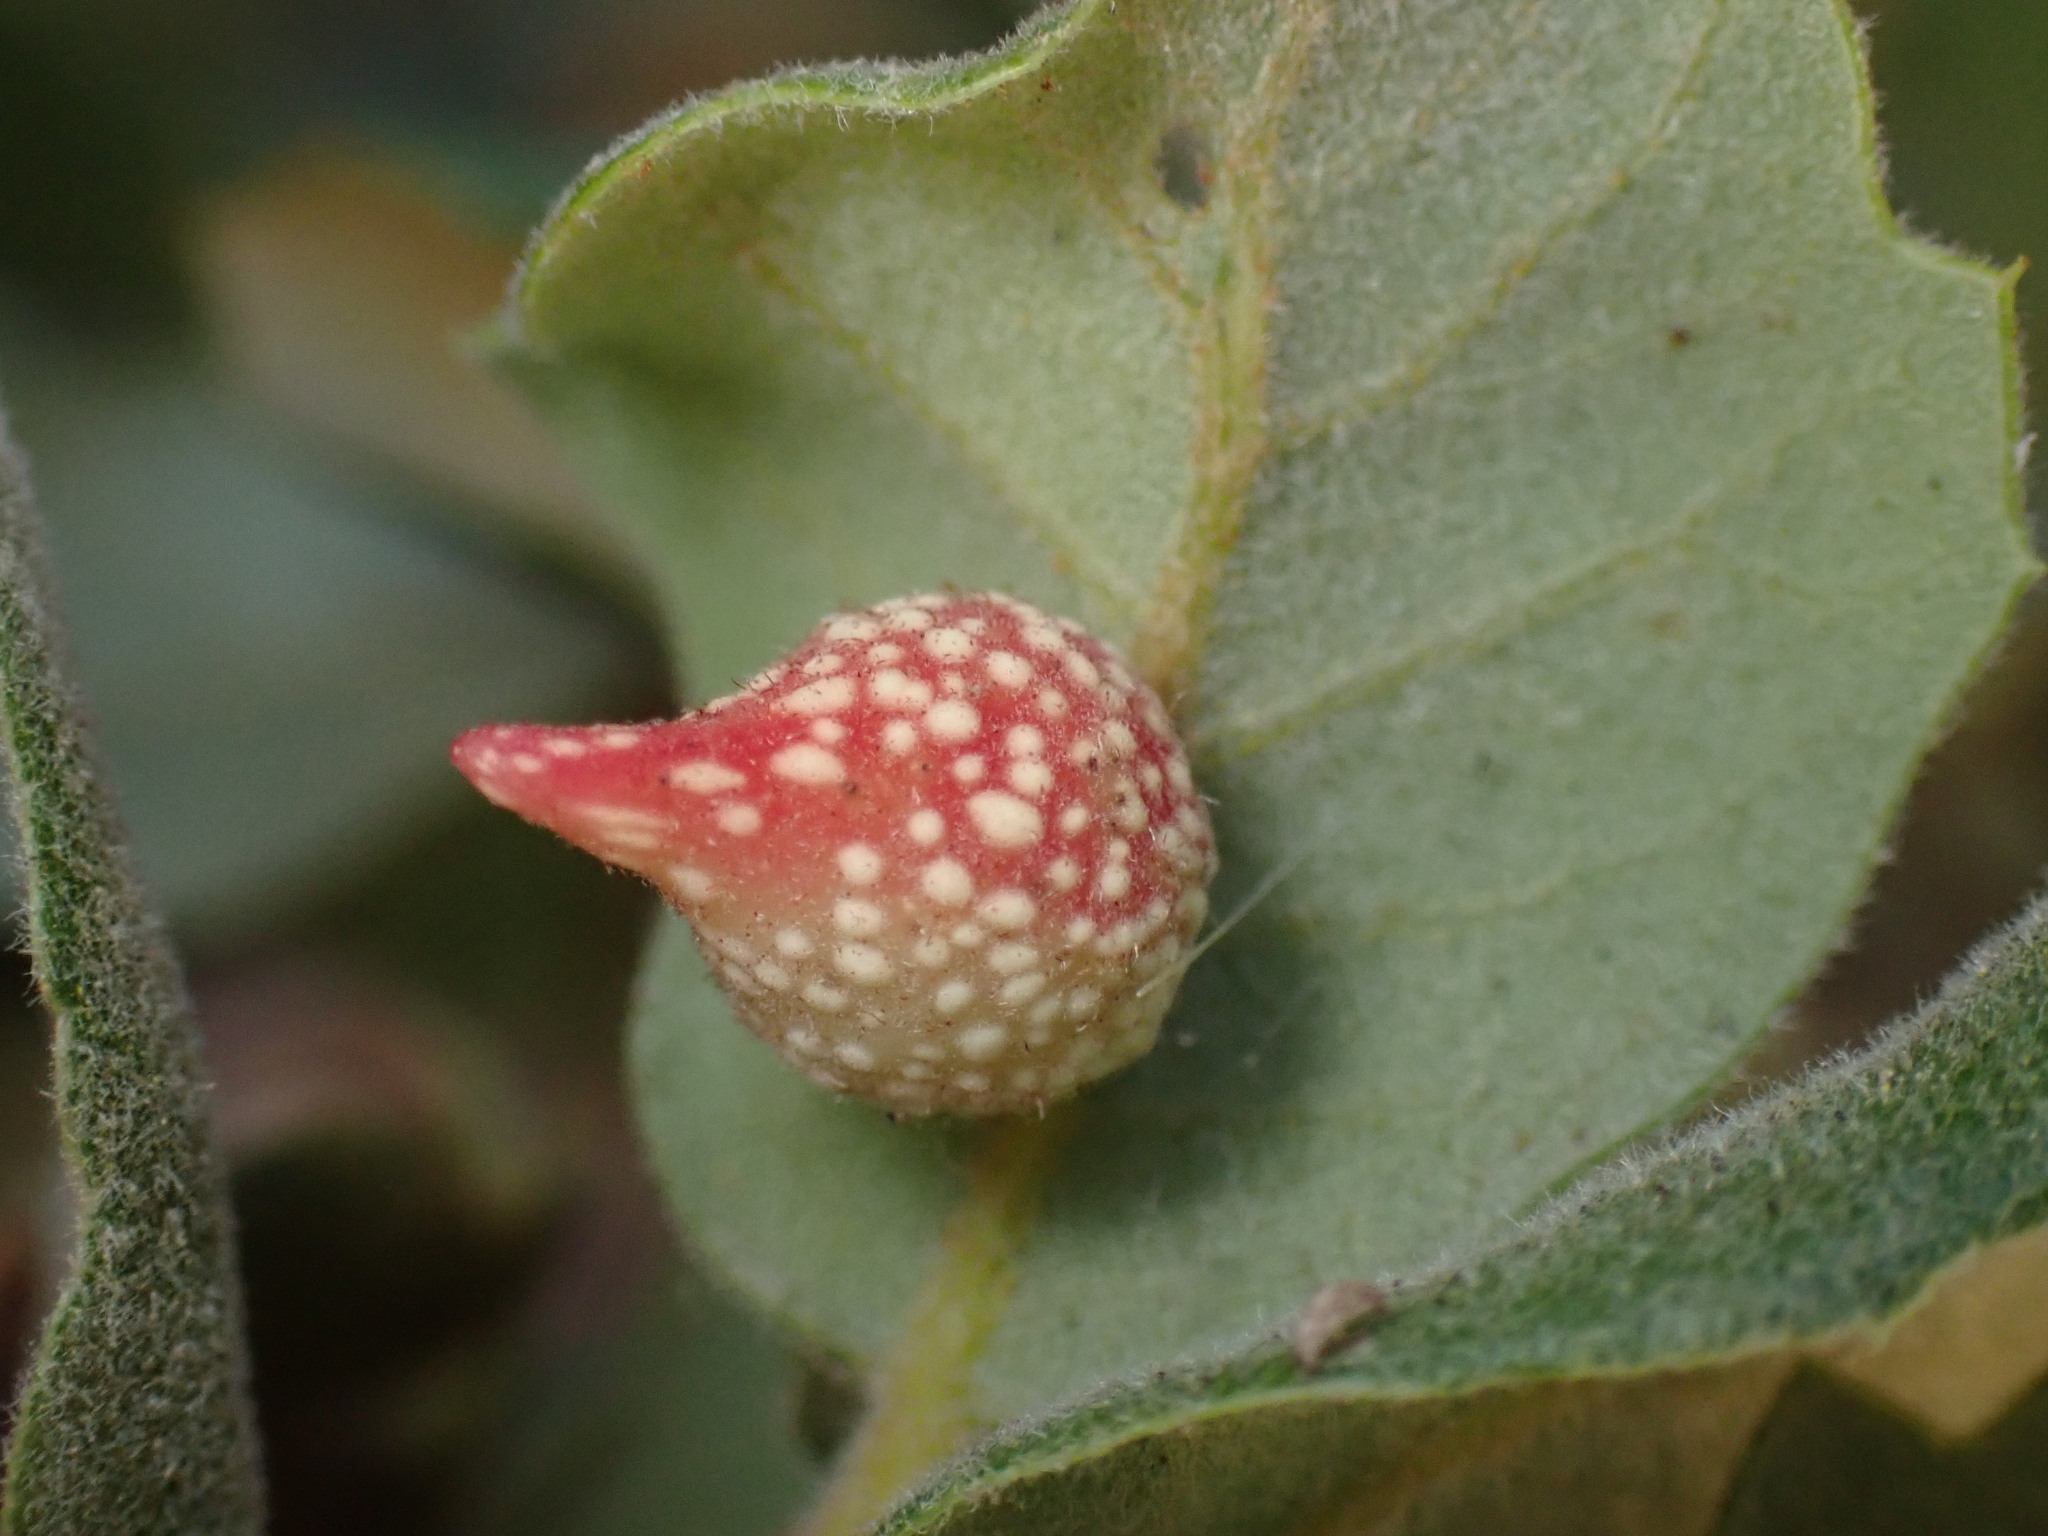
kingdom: Animalia
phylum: Arthropoda
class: Insecta
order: Hymenoptera
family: Cynipidae
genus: Burnettweldia
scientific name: Burnettweldia
